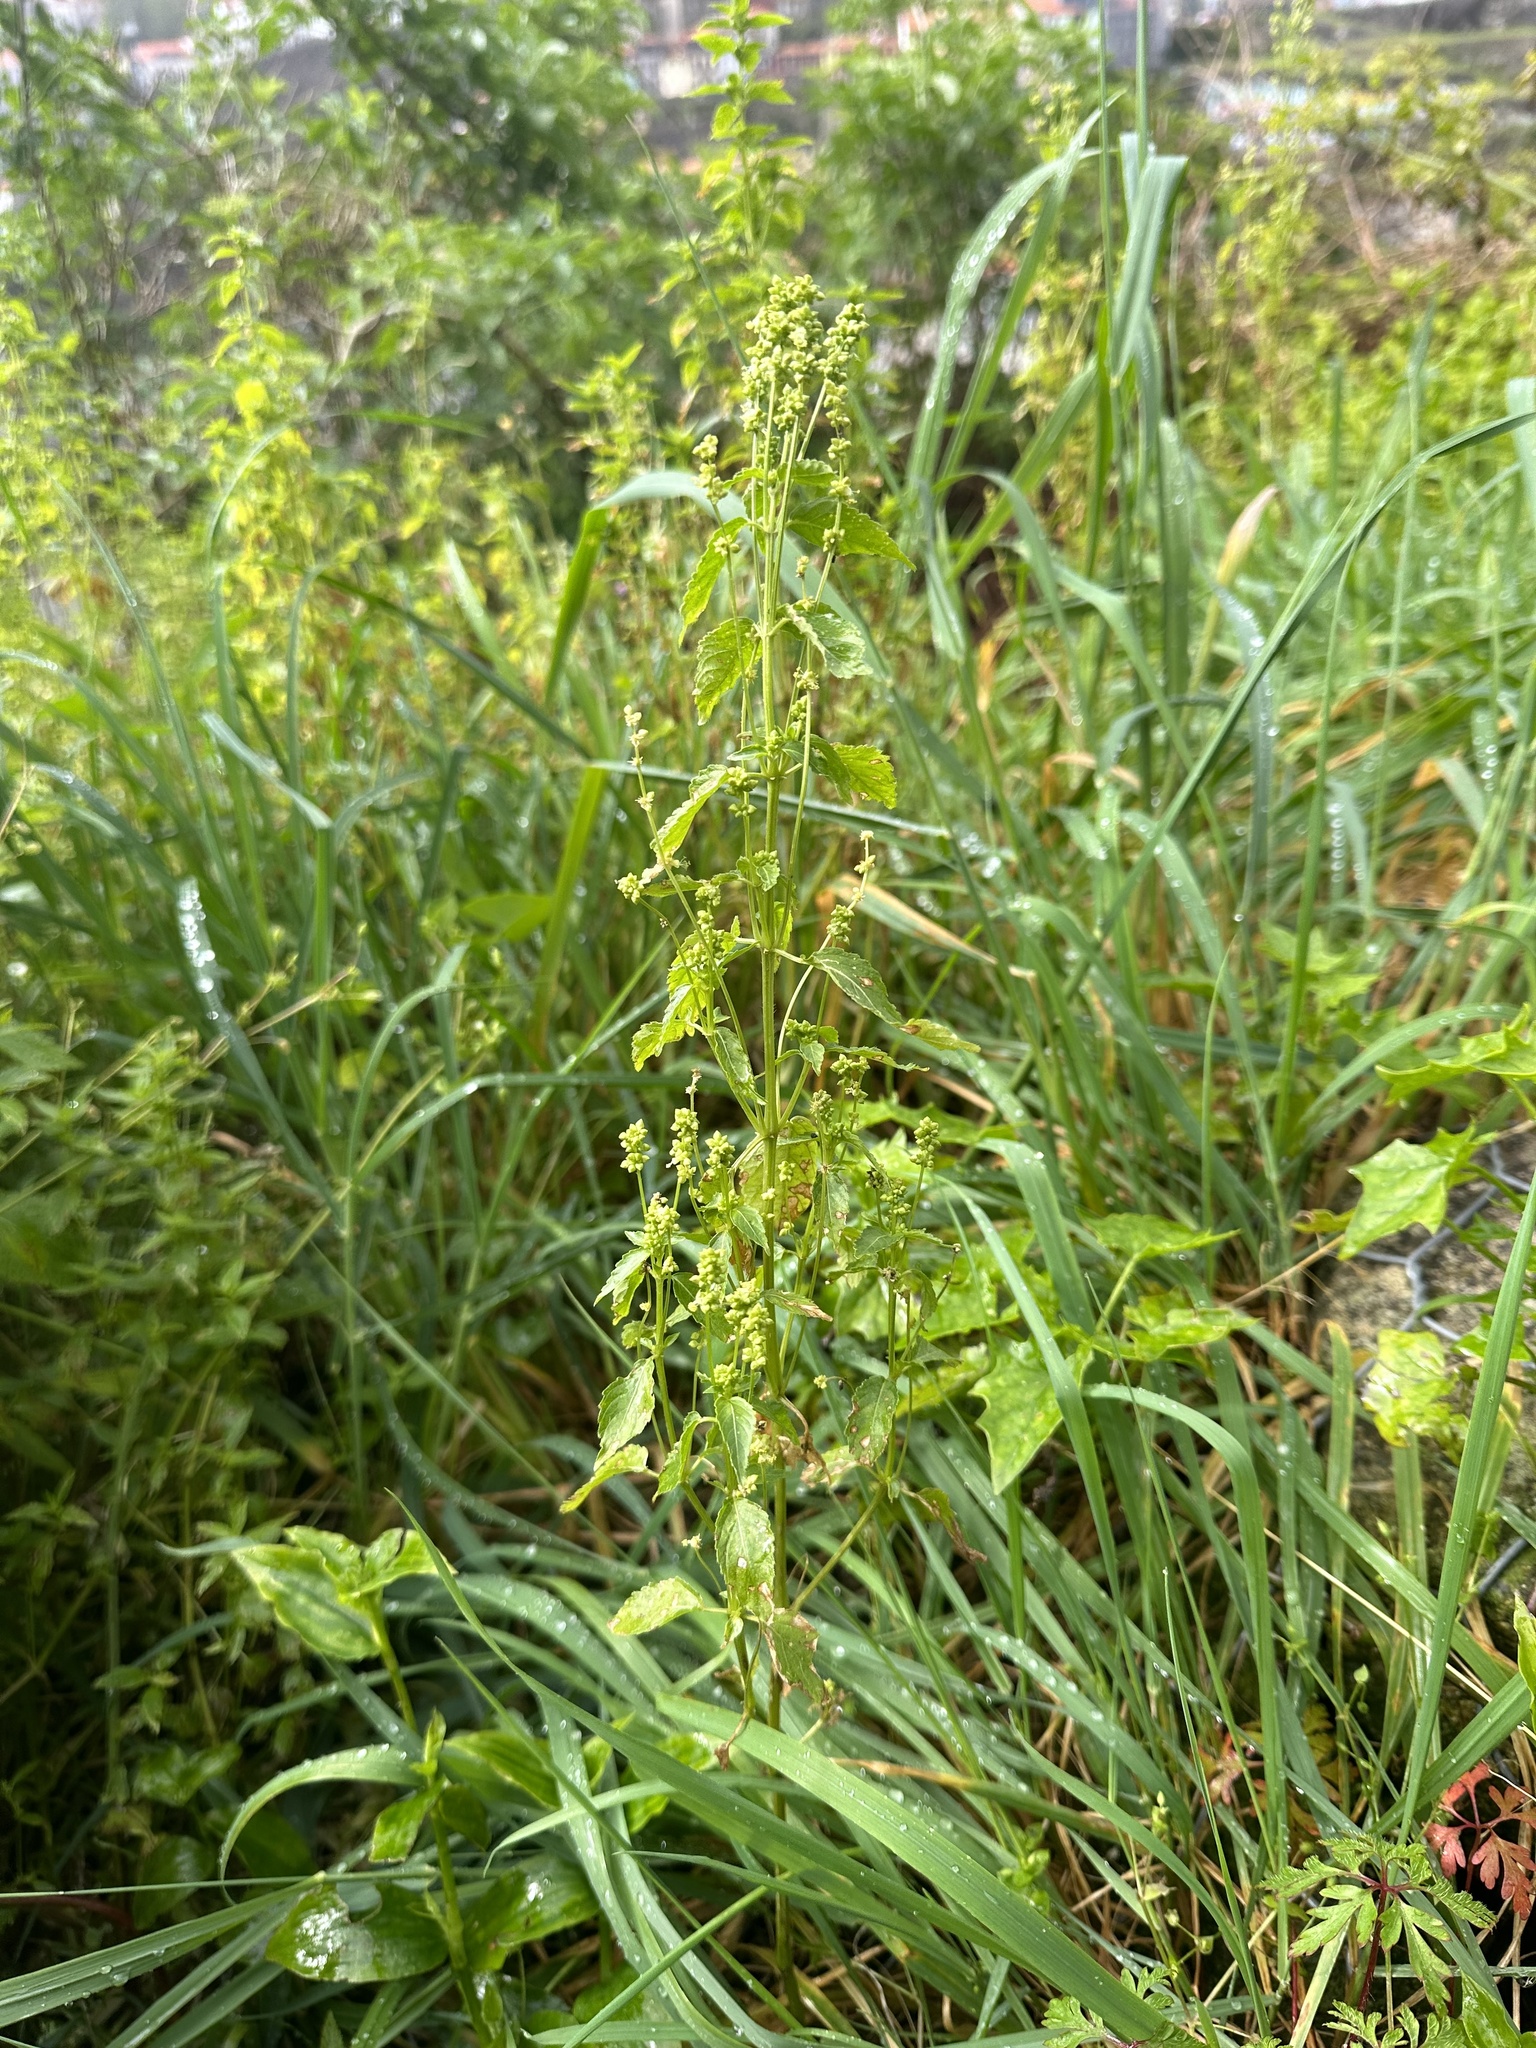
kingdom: Plantae
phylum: Tracheophyta
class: Magnoliopsida
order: Malpighiales
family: Euphorbiaceae
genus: Mercurialis
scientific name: Mercurialis annua
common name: Annual mercury
